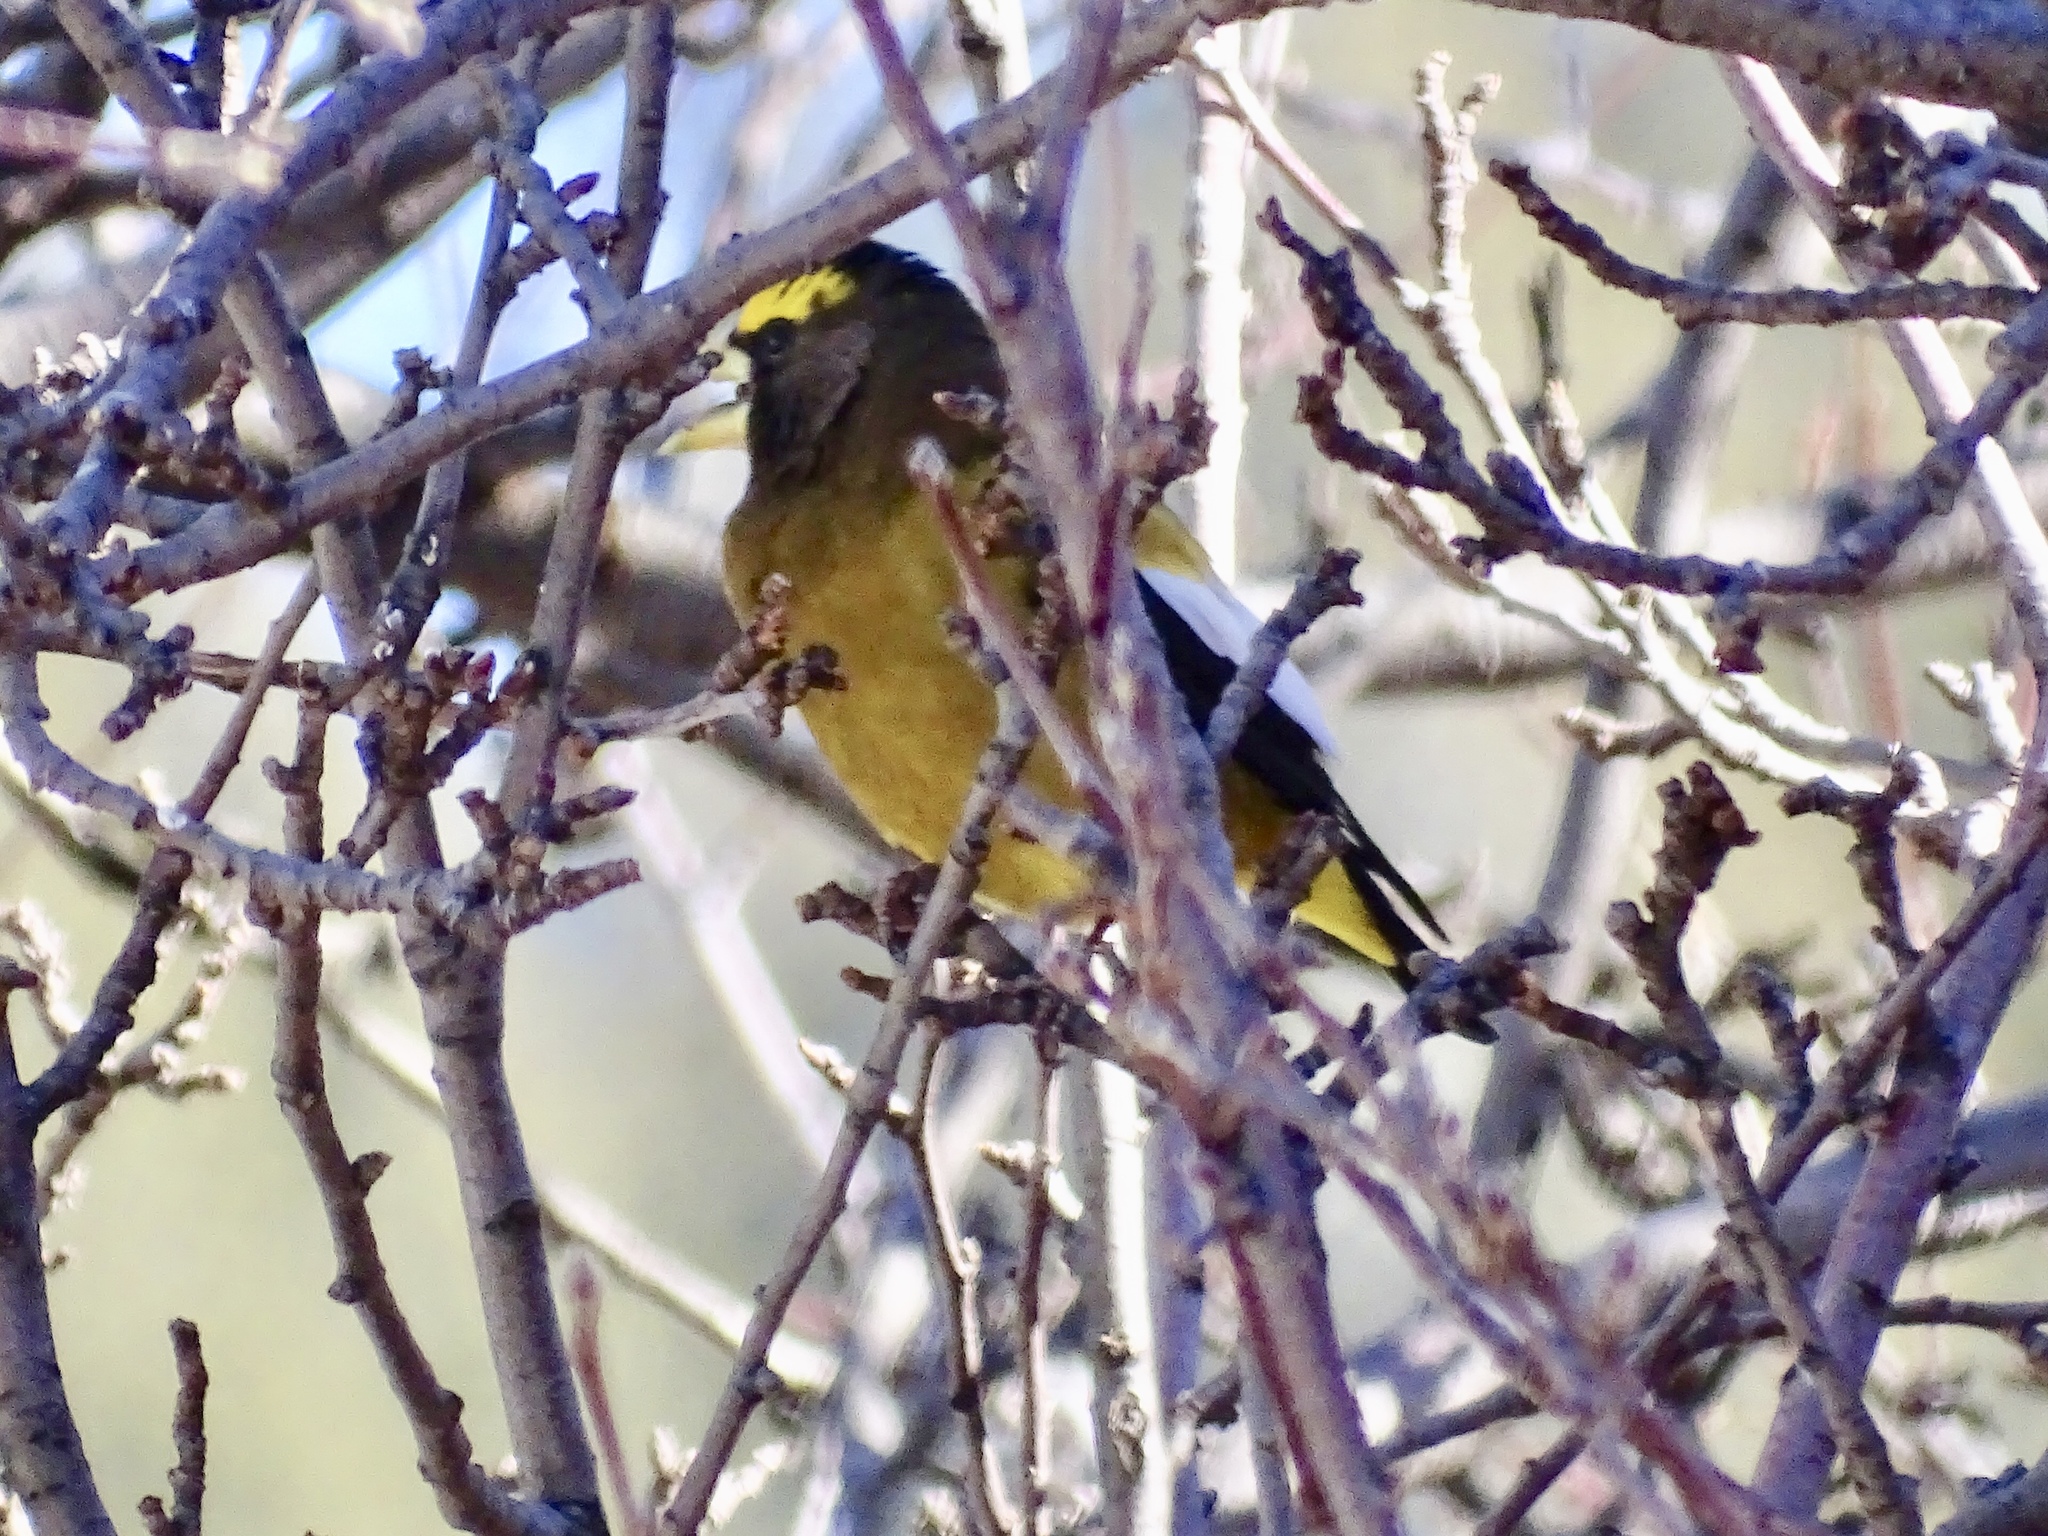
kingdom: Animalia
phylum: Chordata
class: Aves
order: Passeriformes
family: Fringillidae
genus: Hesperiphona
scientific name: Hesperiphona vespertina
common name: Evening grosbeak
